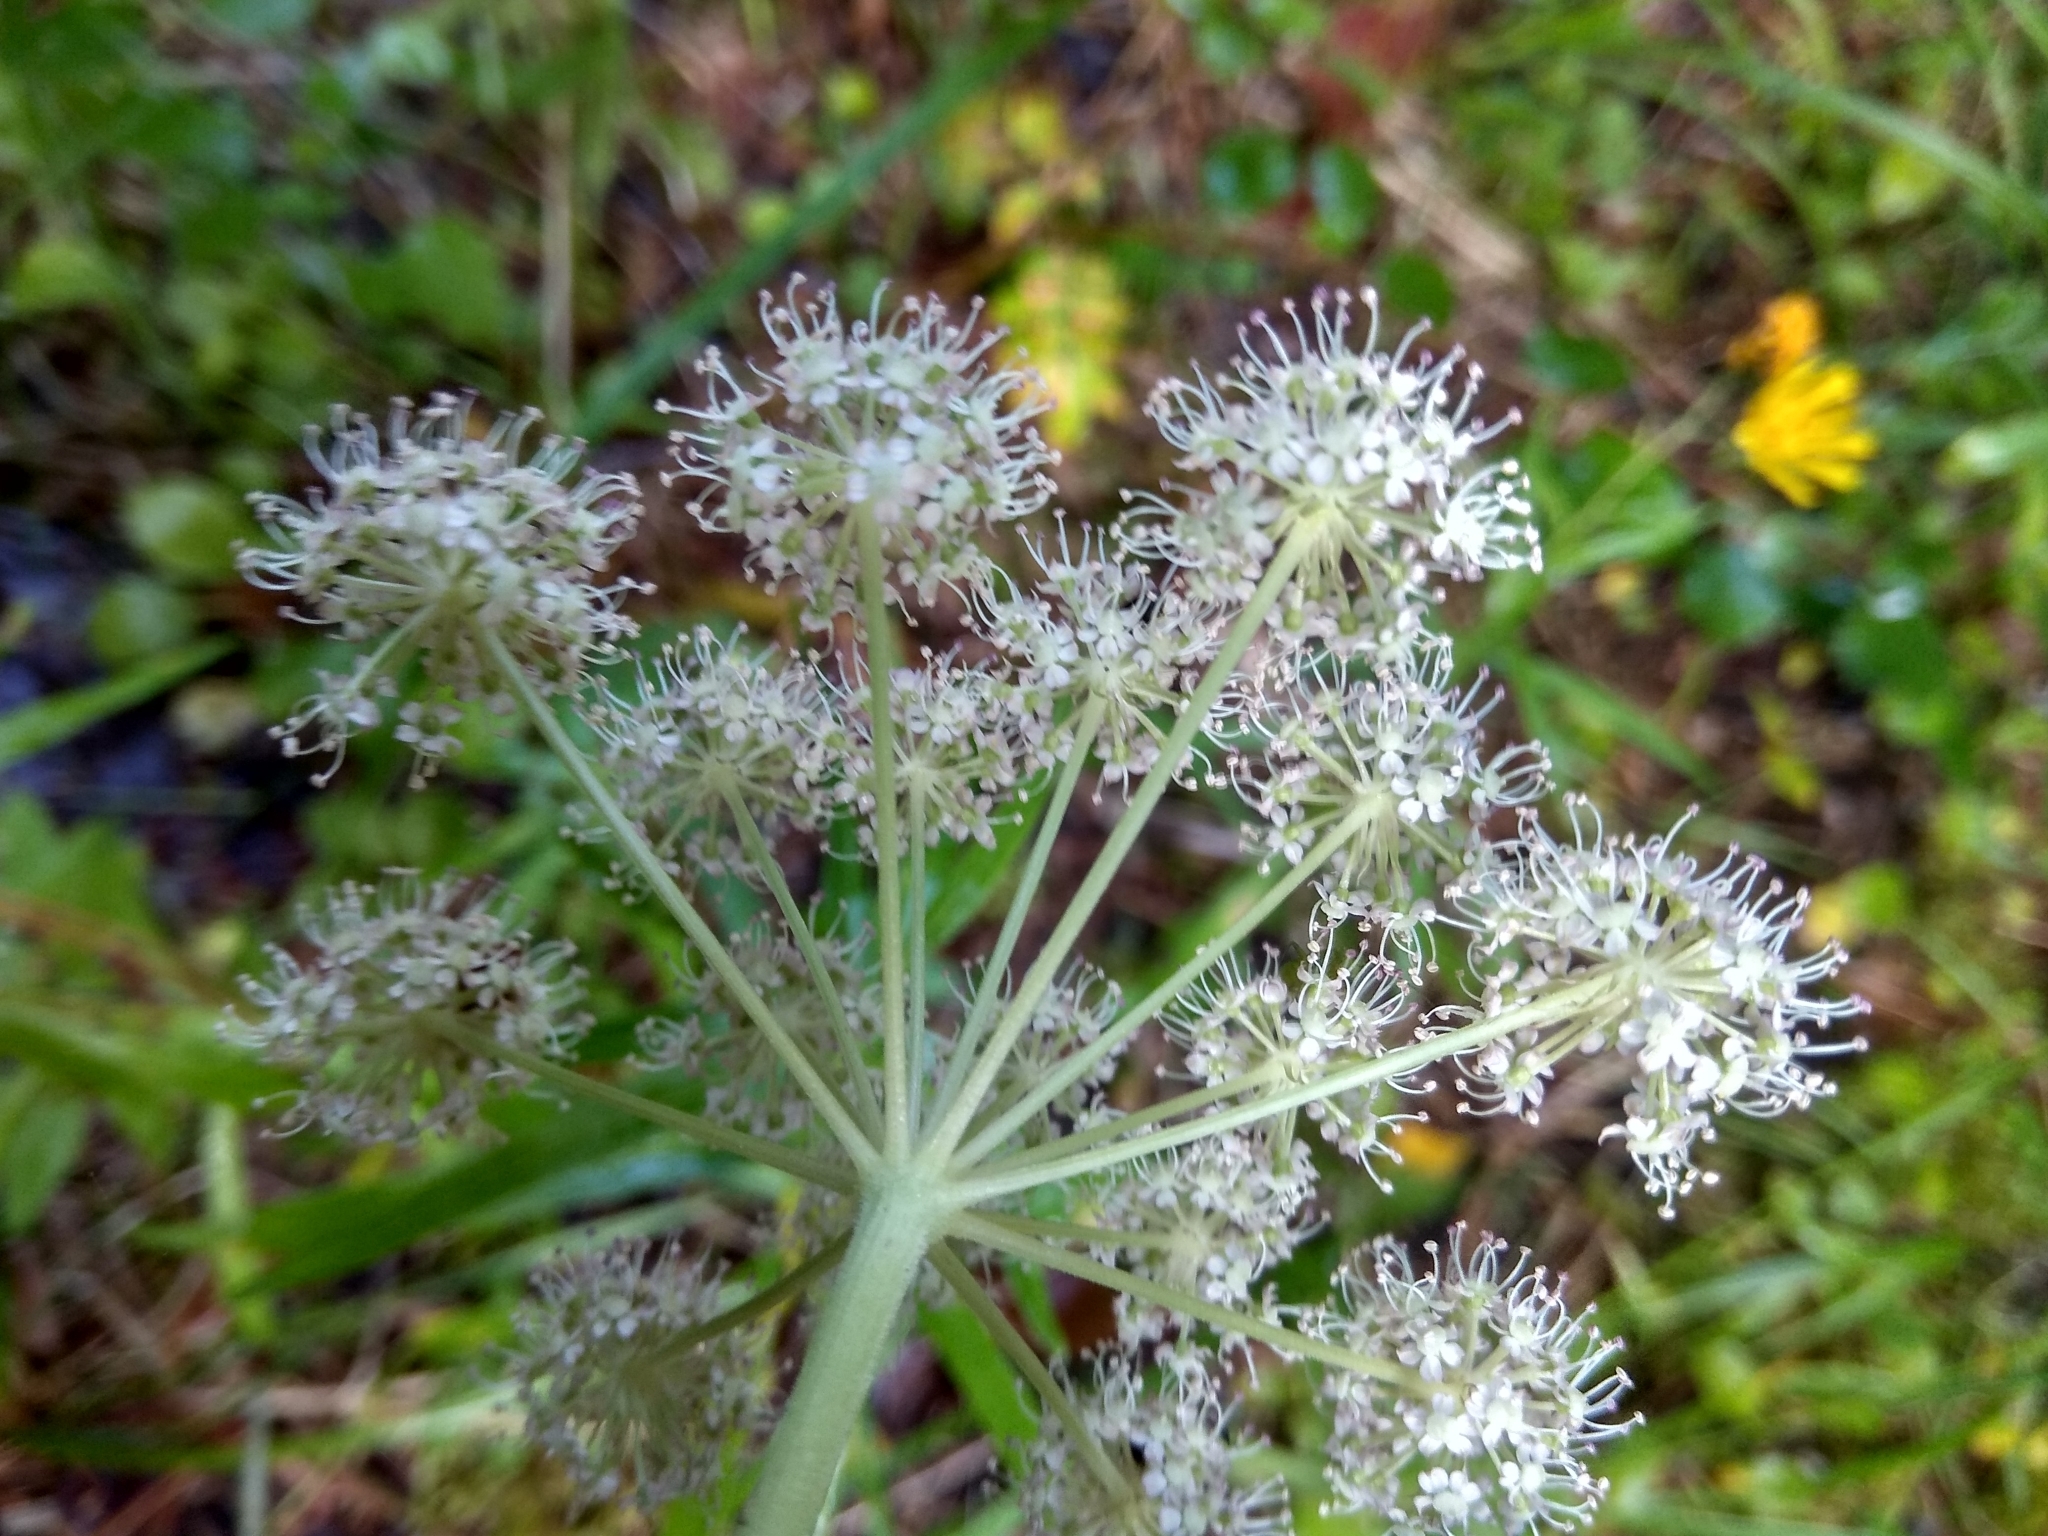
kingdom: Plantae
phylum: Tracheophyta
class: Magnoliopsida
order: Apiales
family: Apiaceae
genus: Angelica
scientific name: Angelica sylvestris
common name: Wild angelica
